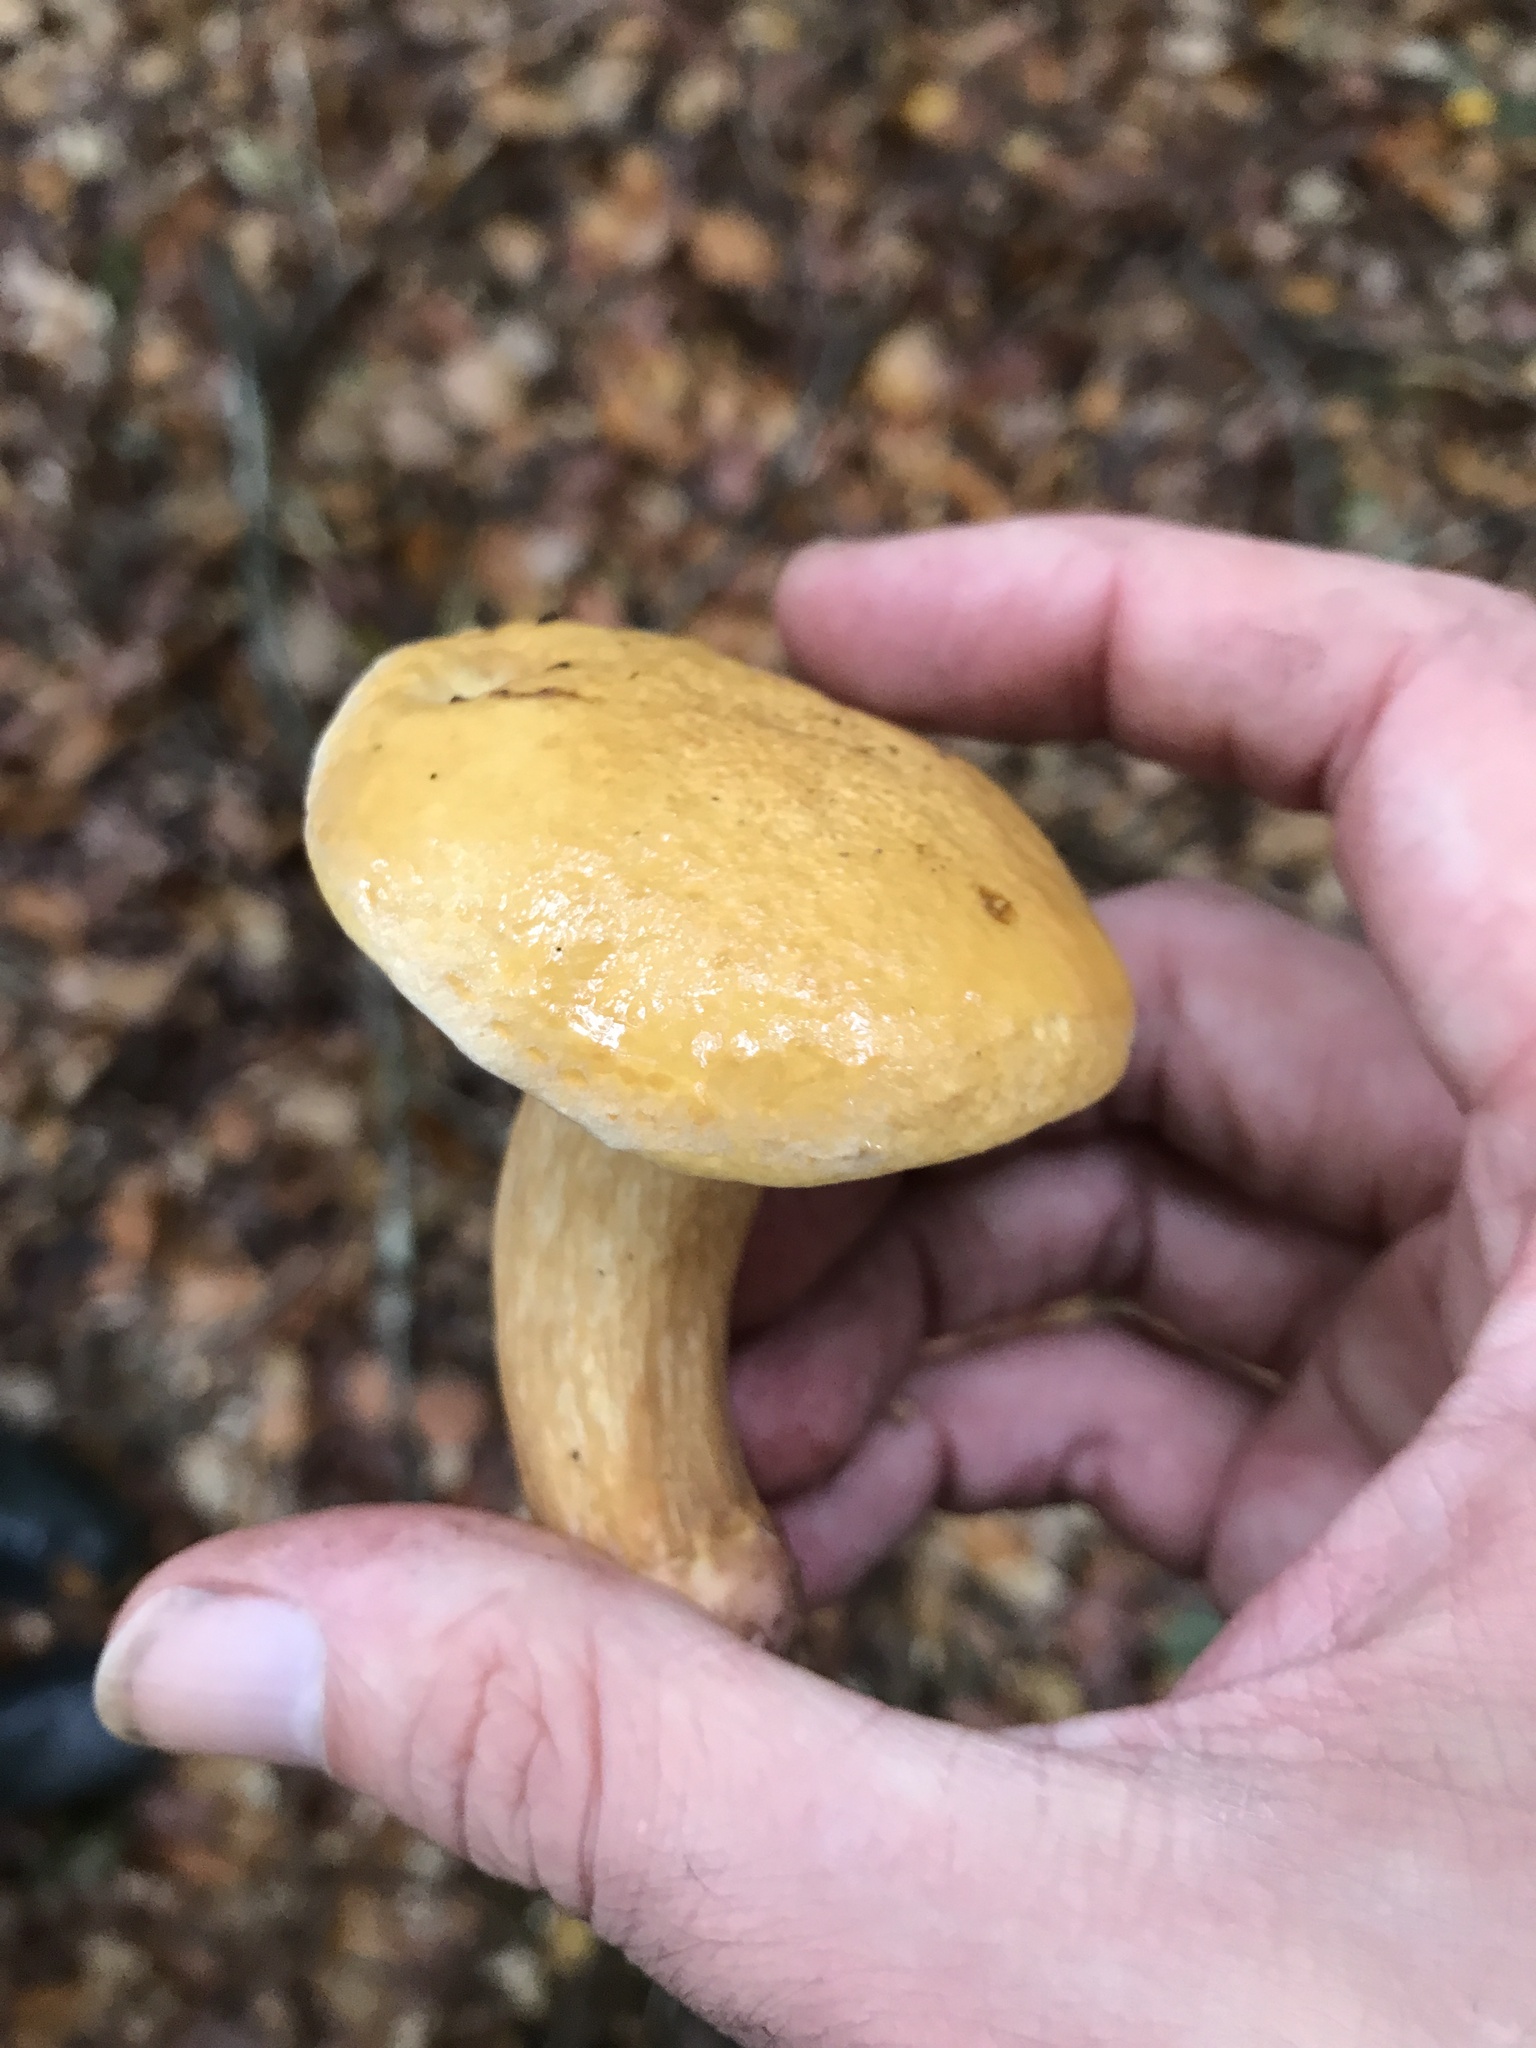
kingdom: Fungi
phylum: Basidiomycota
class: Agaricomycetes
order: Boletales
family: Suillaceae
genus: Suillus
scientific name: Suillus bovinus
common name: Bovine bolete
